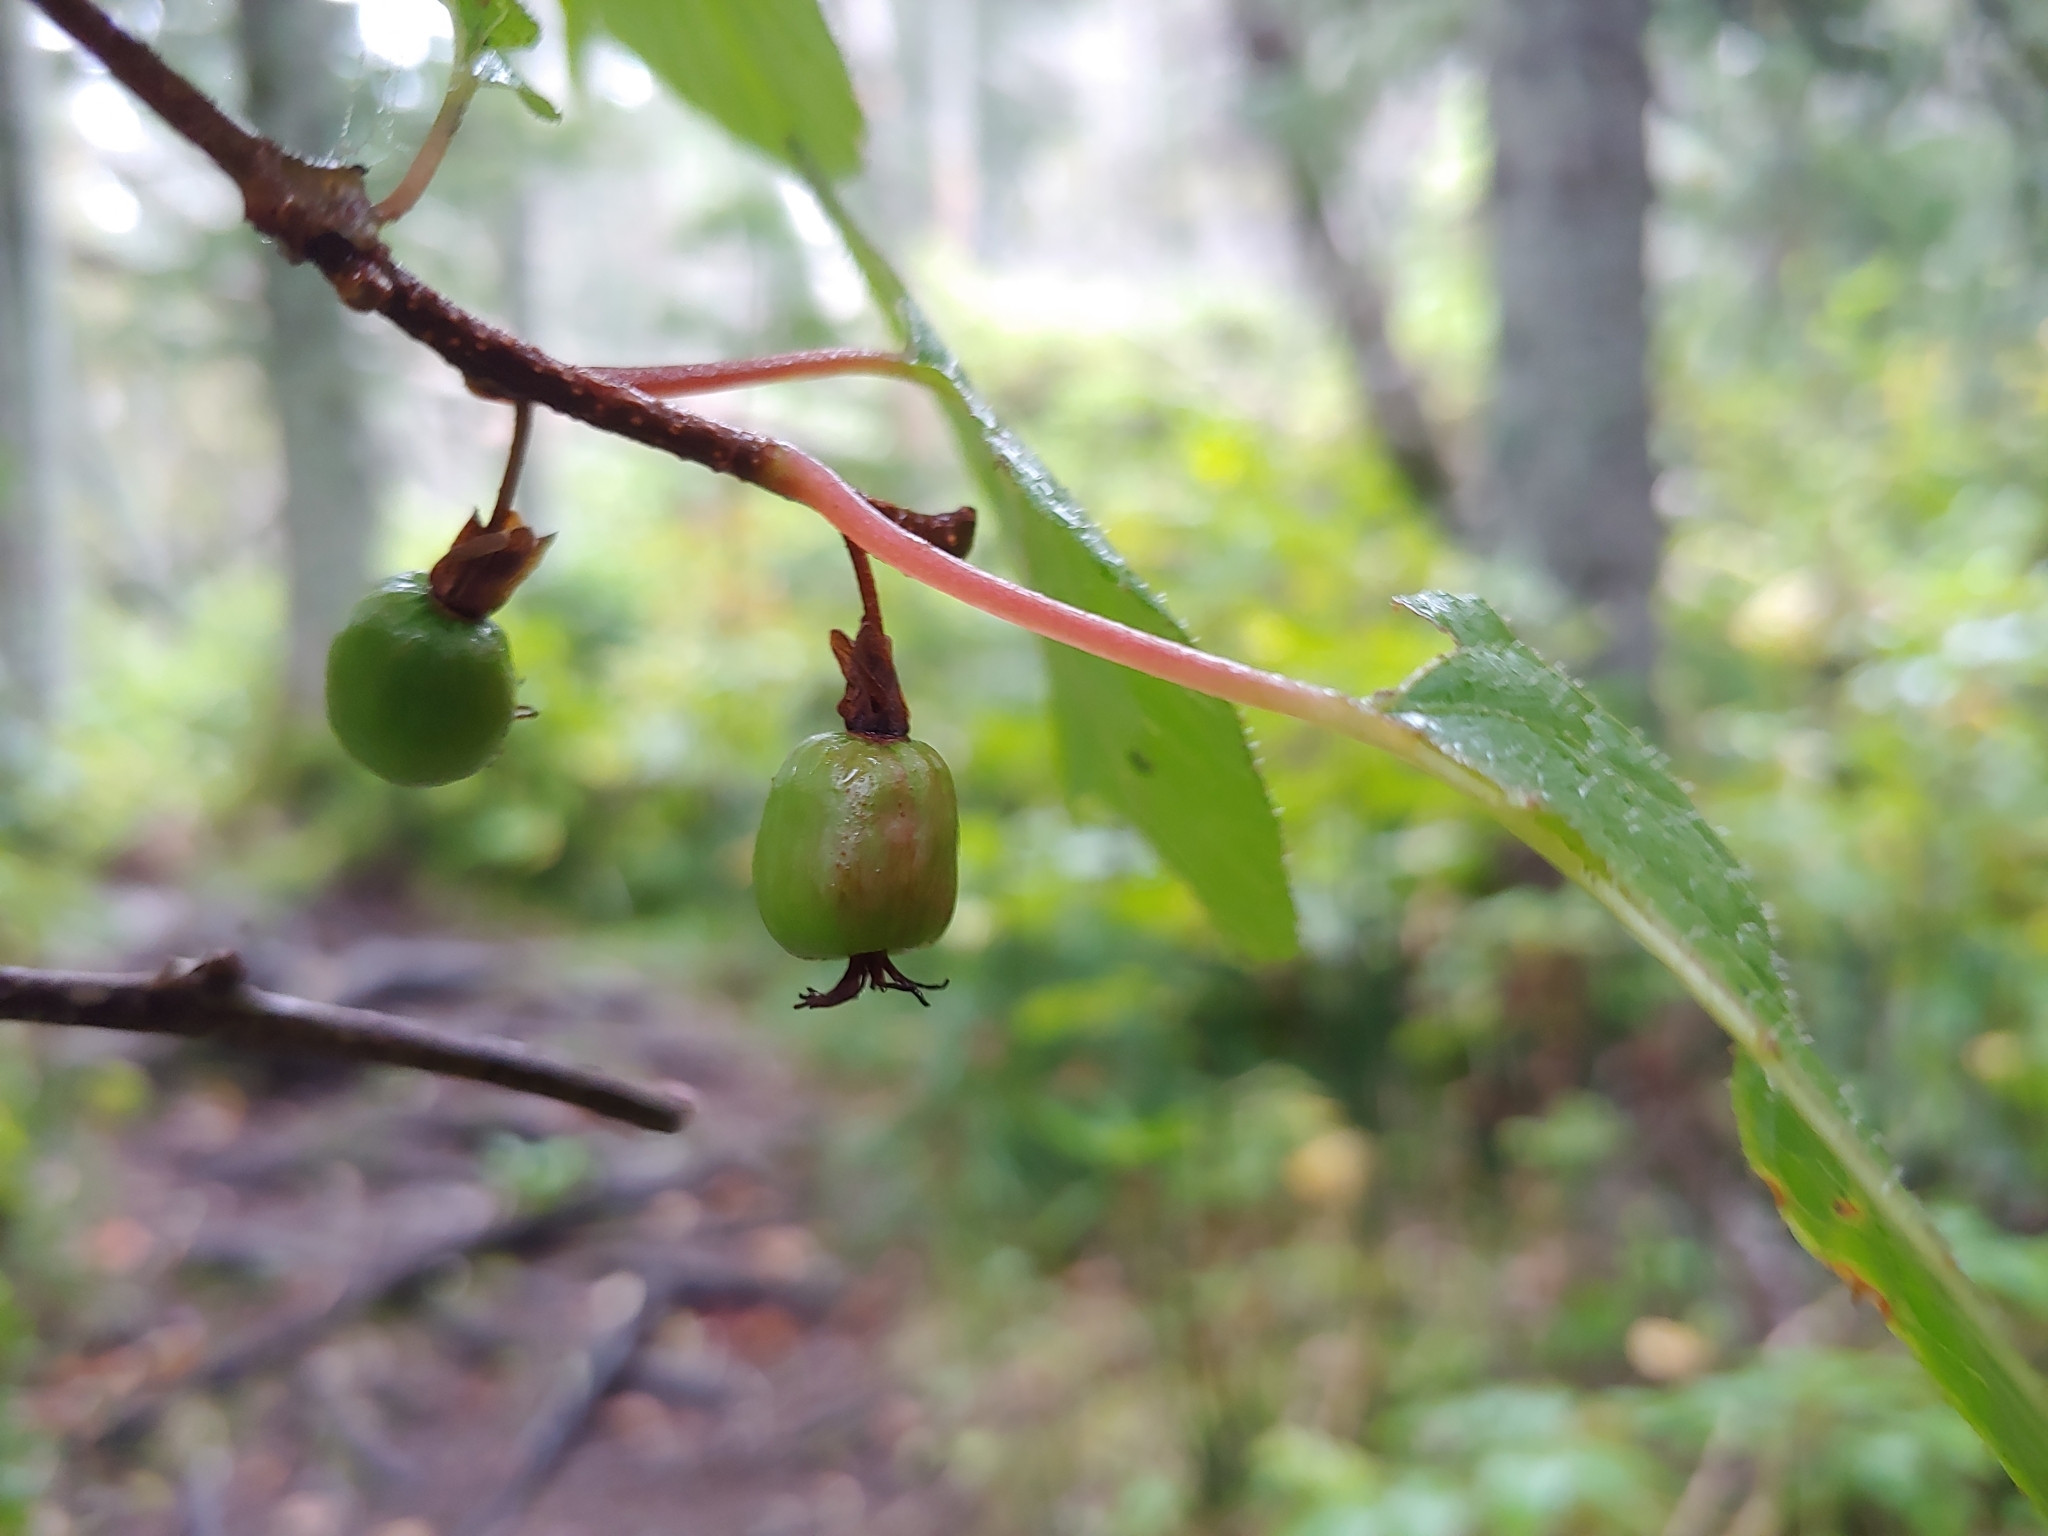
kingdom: Plantae
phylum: Tracheophyta
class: Magnoliopsida
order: Ericales
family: Actinidiaceae
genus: Actinidia
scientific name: Actinidia kolomikta
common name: Arctic beauty kiwi
